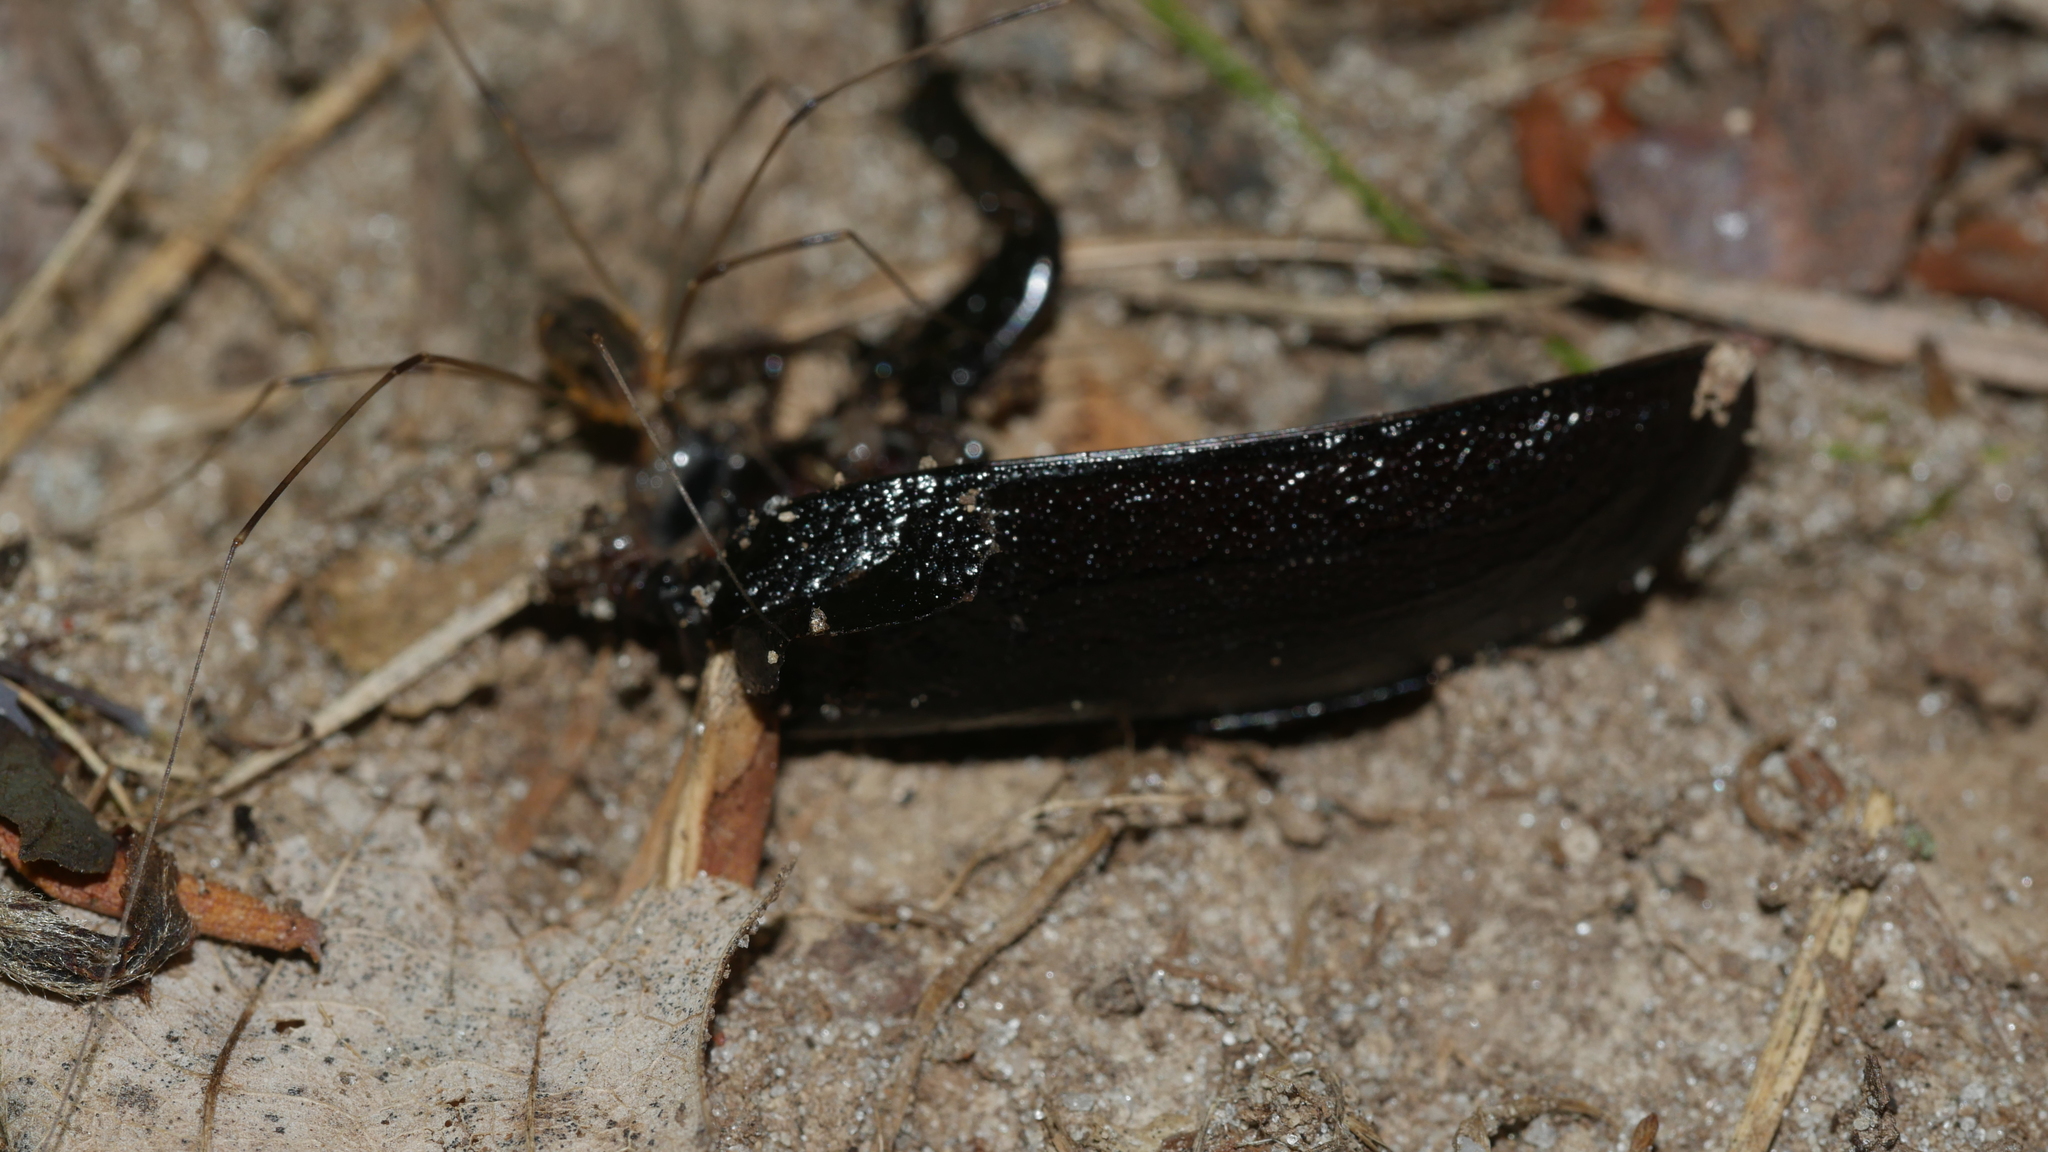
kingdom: Animalia
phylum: Arthropoda
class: Insecta
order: Coleoptera
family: Cerambycidae
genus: Prionus
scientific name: Prionus laticollis
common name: Broad necked prionus
